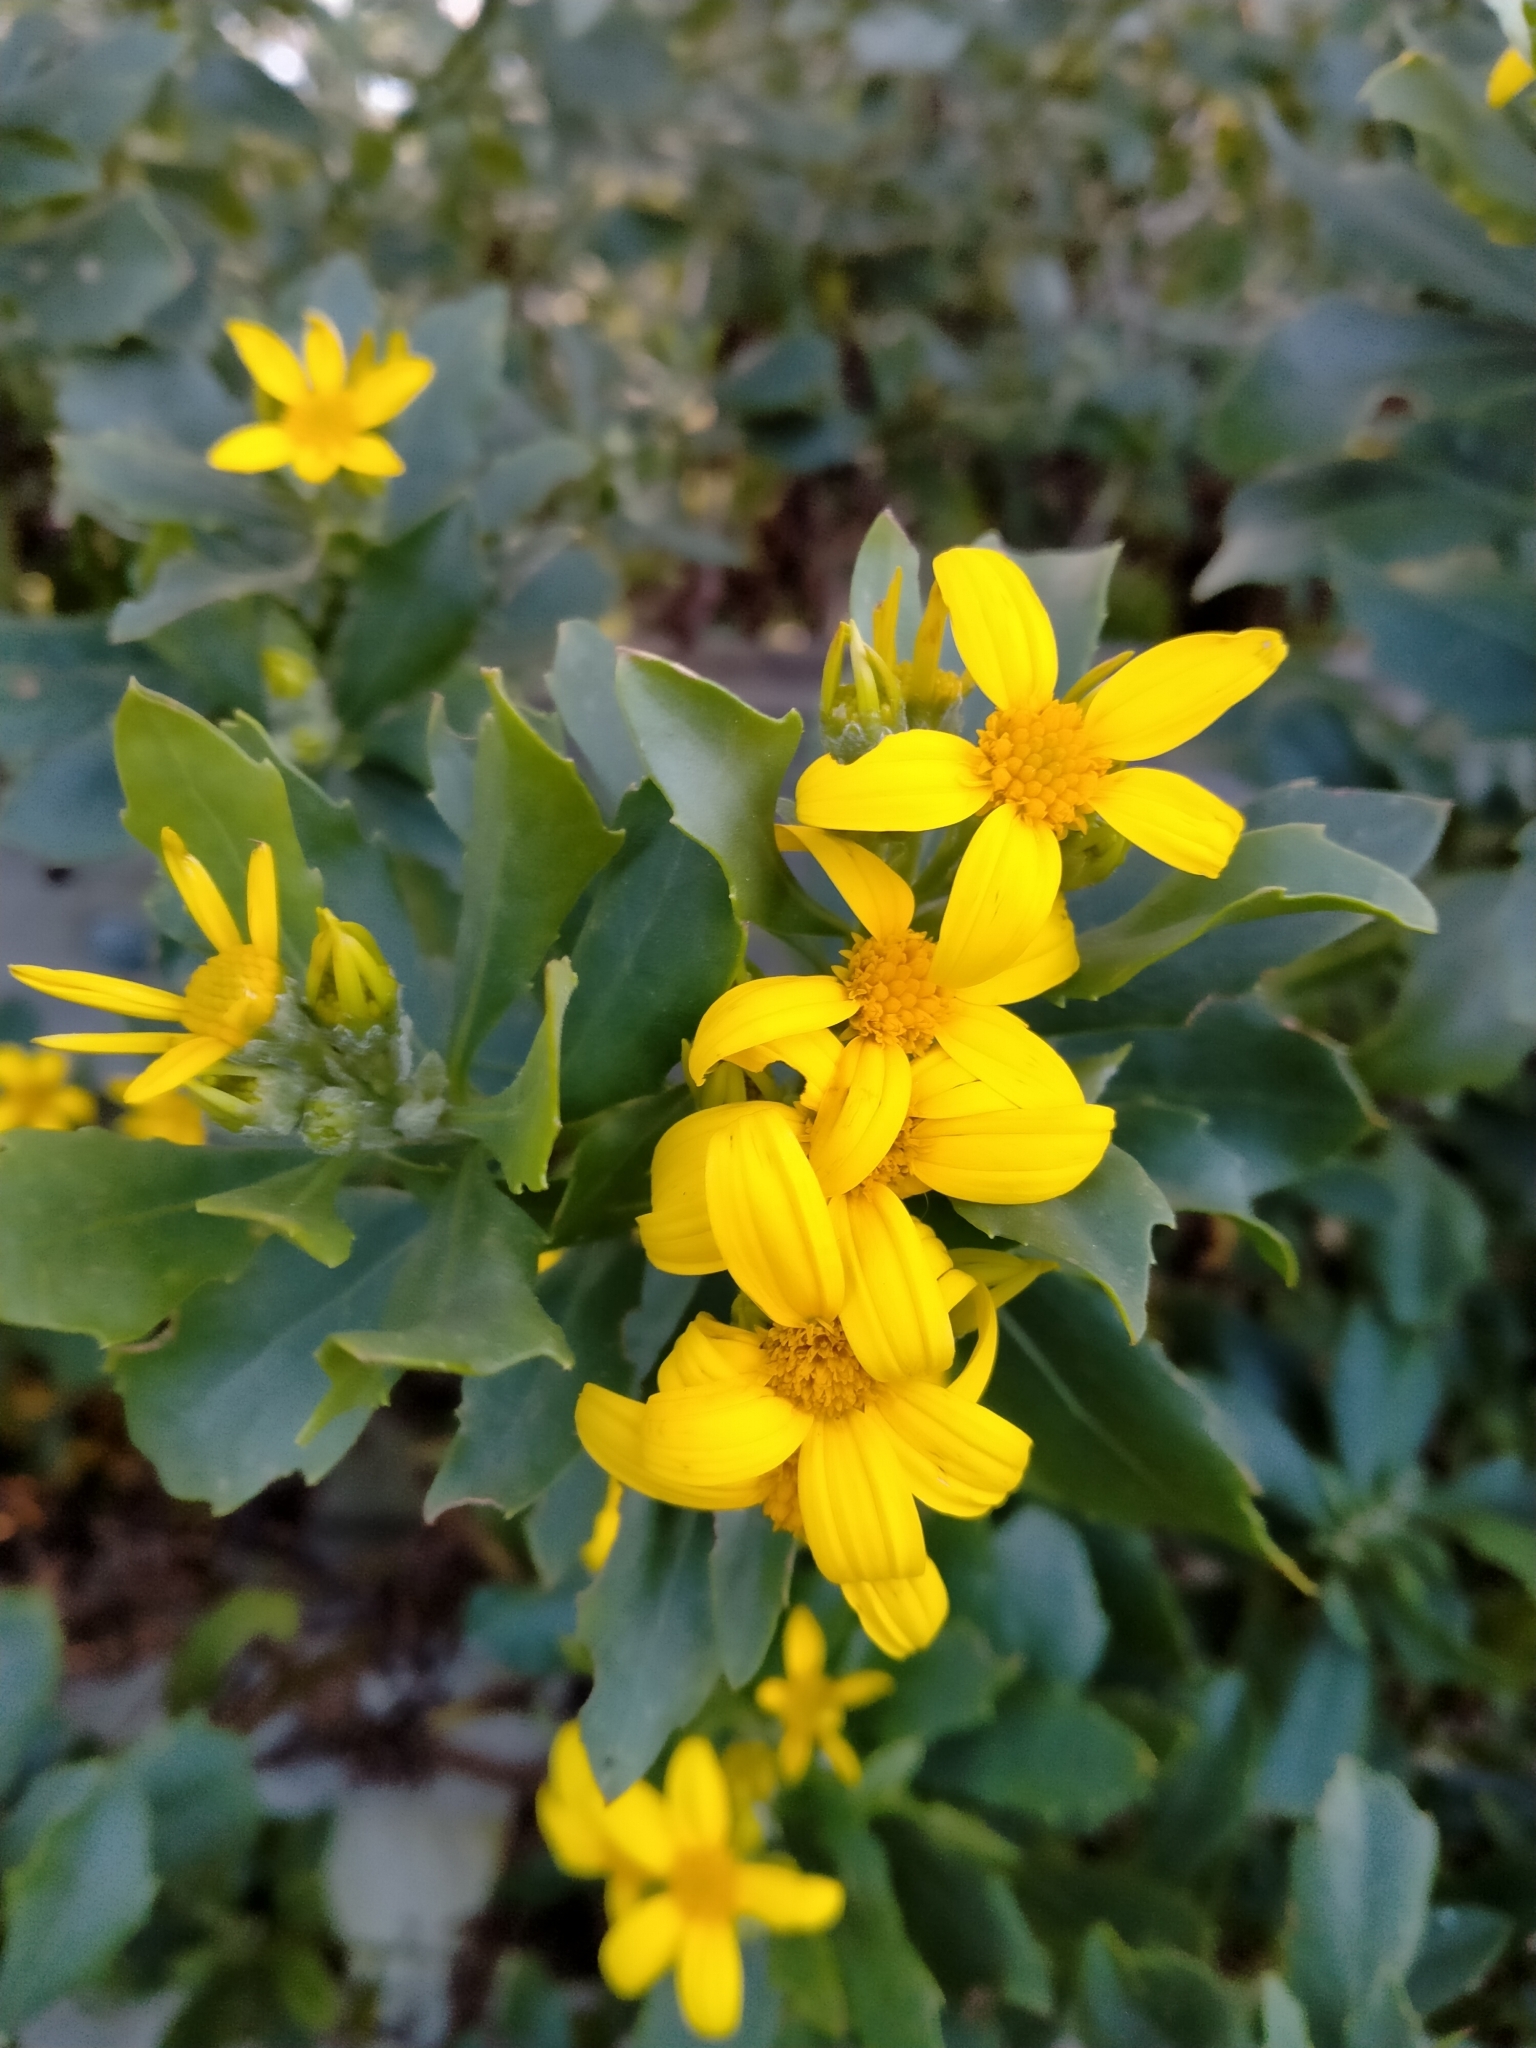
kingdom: Plantae
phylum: Tracheophyta
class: Magnoliopsida
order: Asterales
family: Asteraceae
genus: Osteospermum
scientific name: Osteospermum moniliferum
